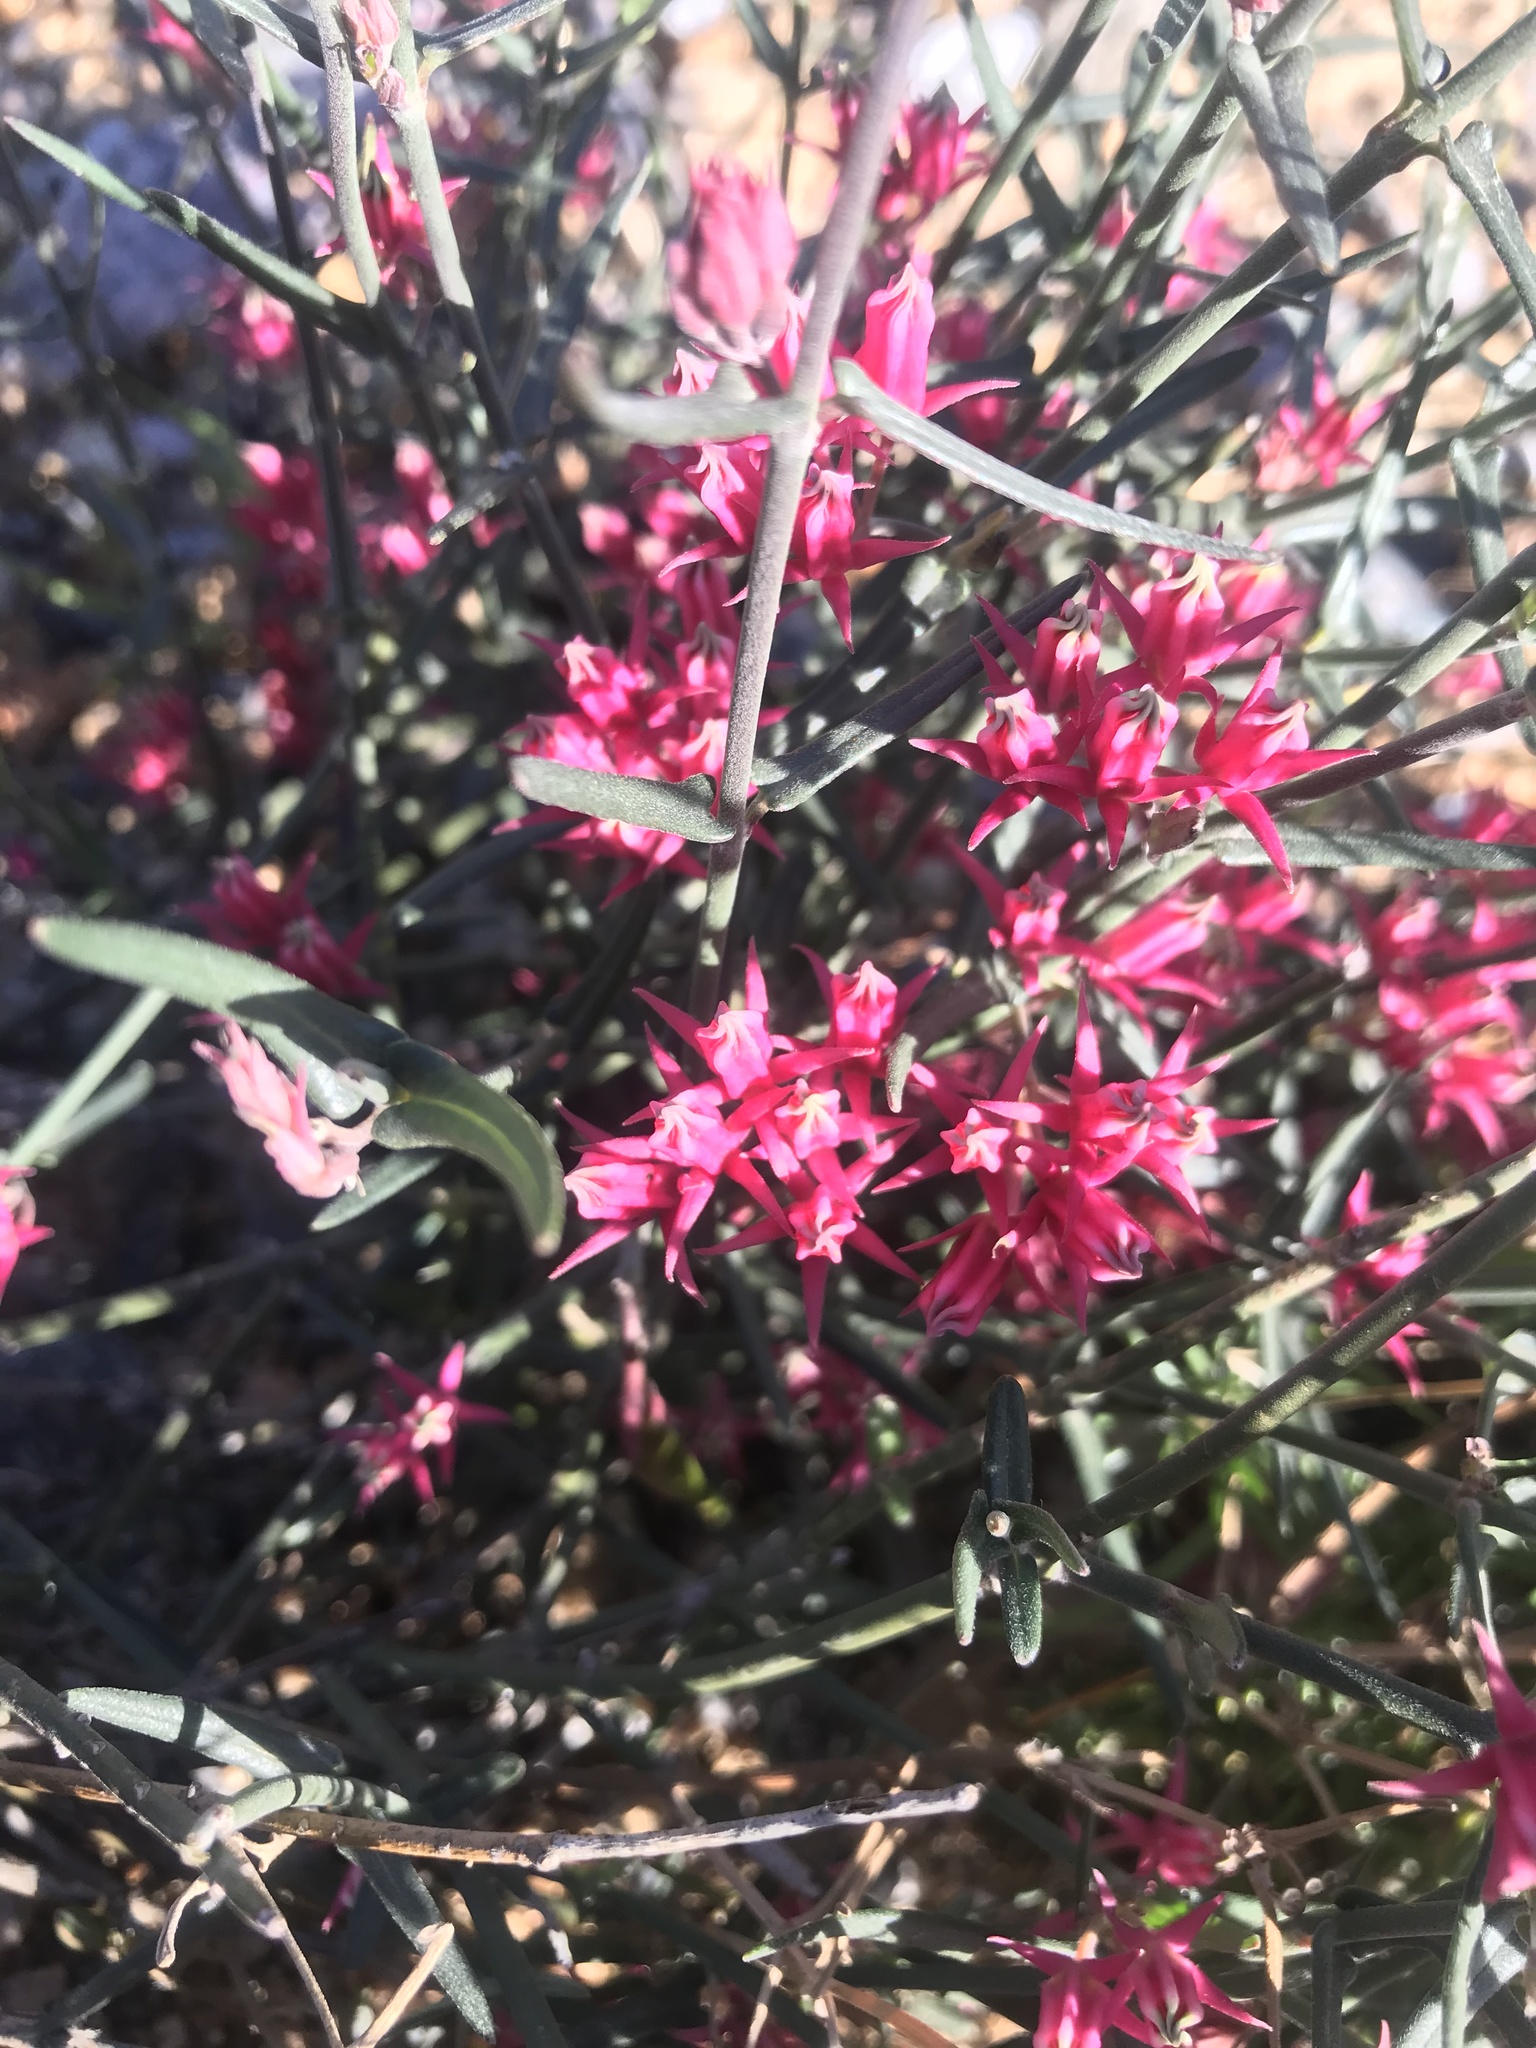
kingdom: Plantae
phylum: Tracheophyta
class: Magnoliopsida
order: Gentianales
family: Apocynaceae
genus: Microloma
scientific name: Microloma sagittatum
